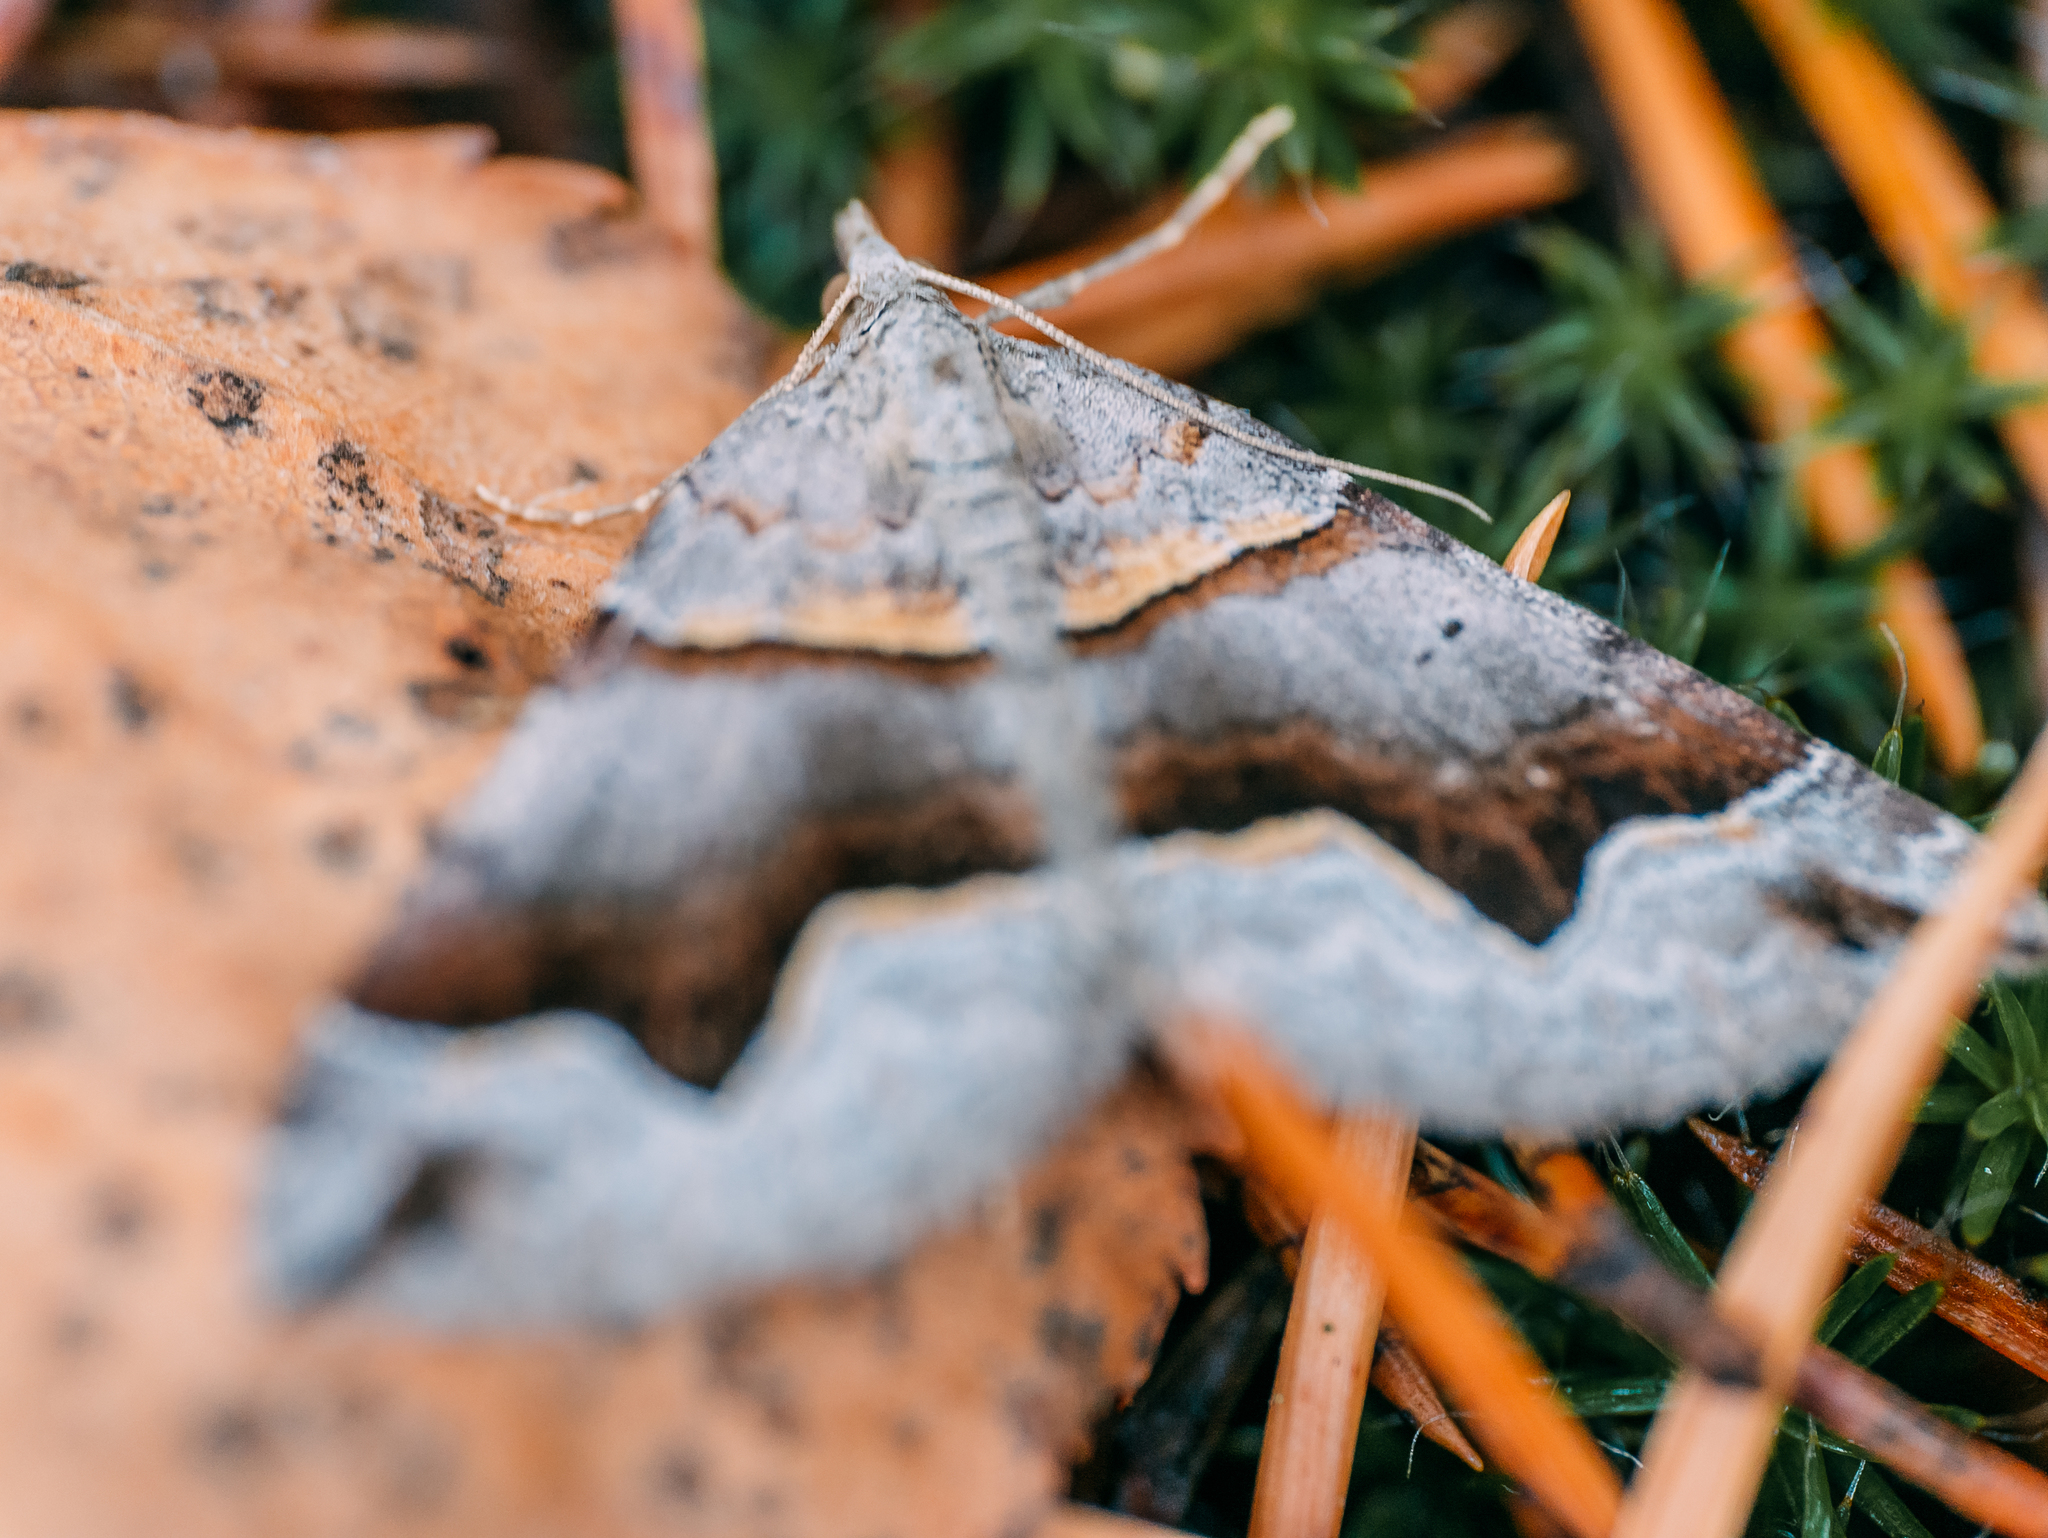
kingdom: Animalia
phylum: Arthropoda
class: Insecta
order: Lepidoptera
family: Geometridae
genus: Scotopteryx
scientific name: Scotopteryx moeniata
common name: Fortified carpet
